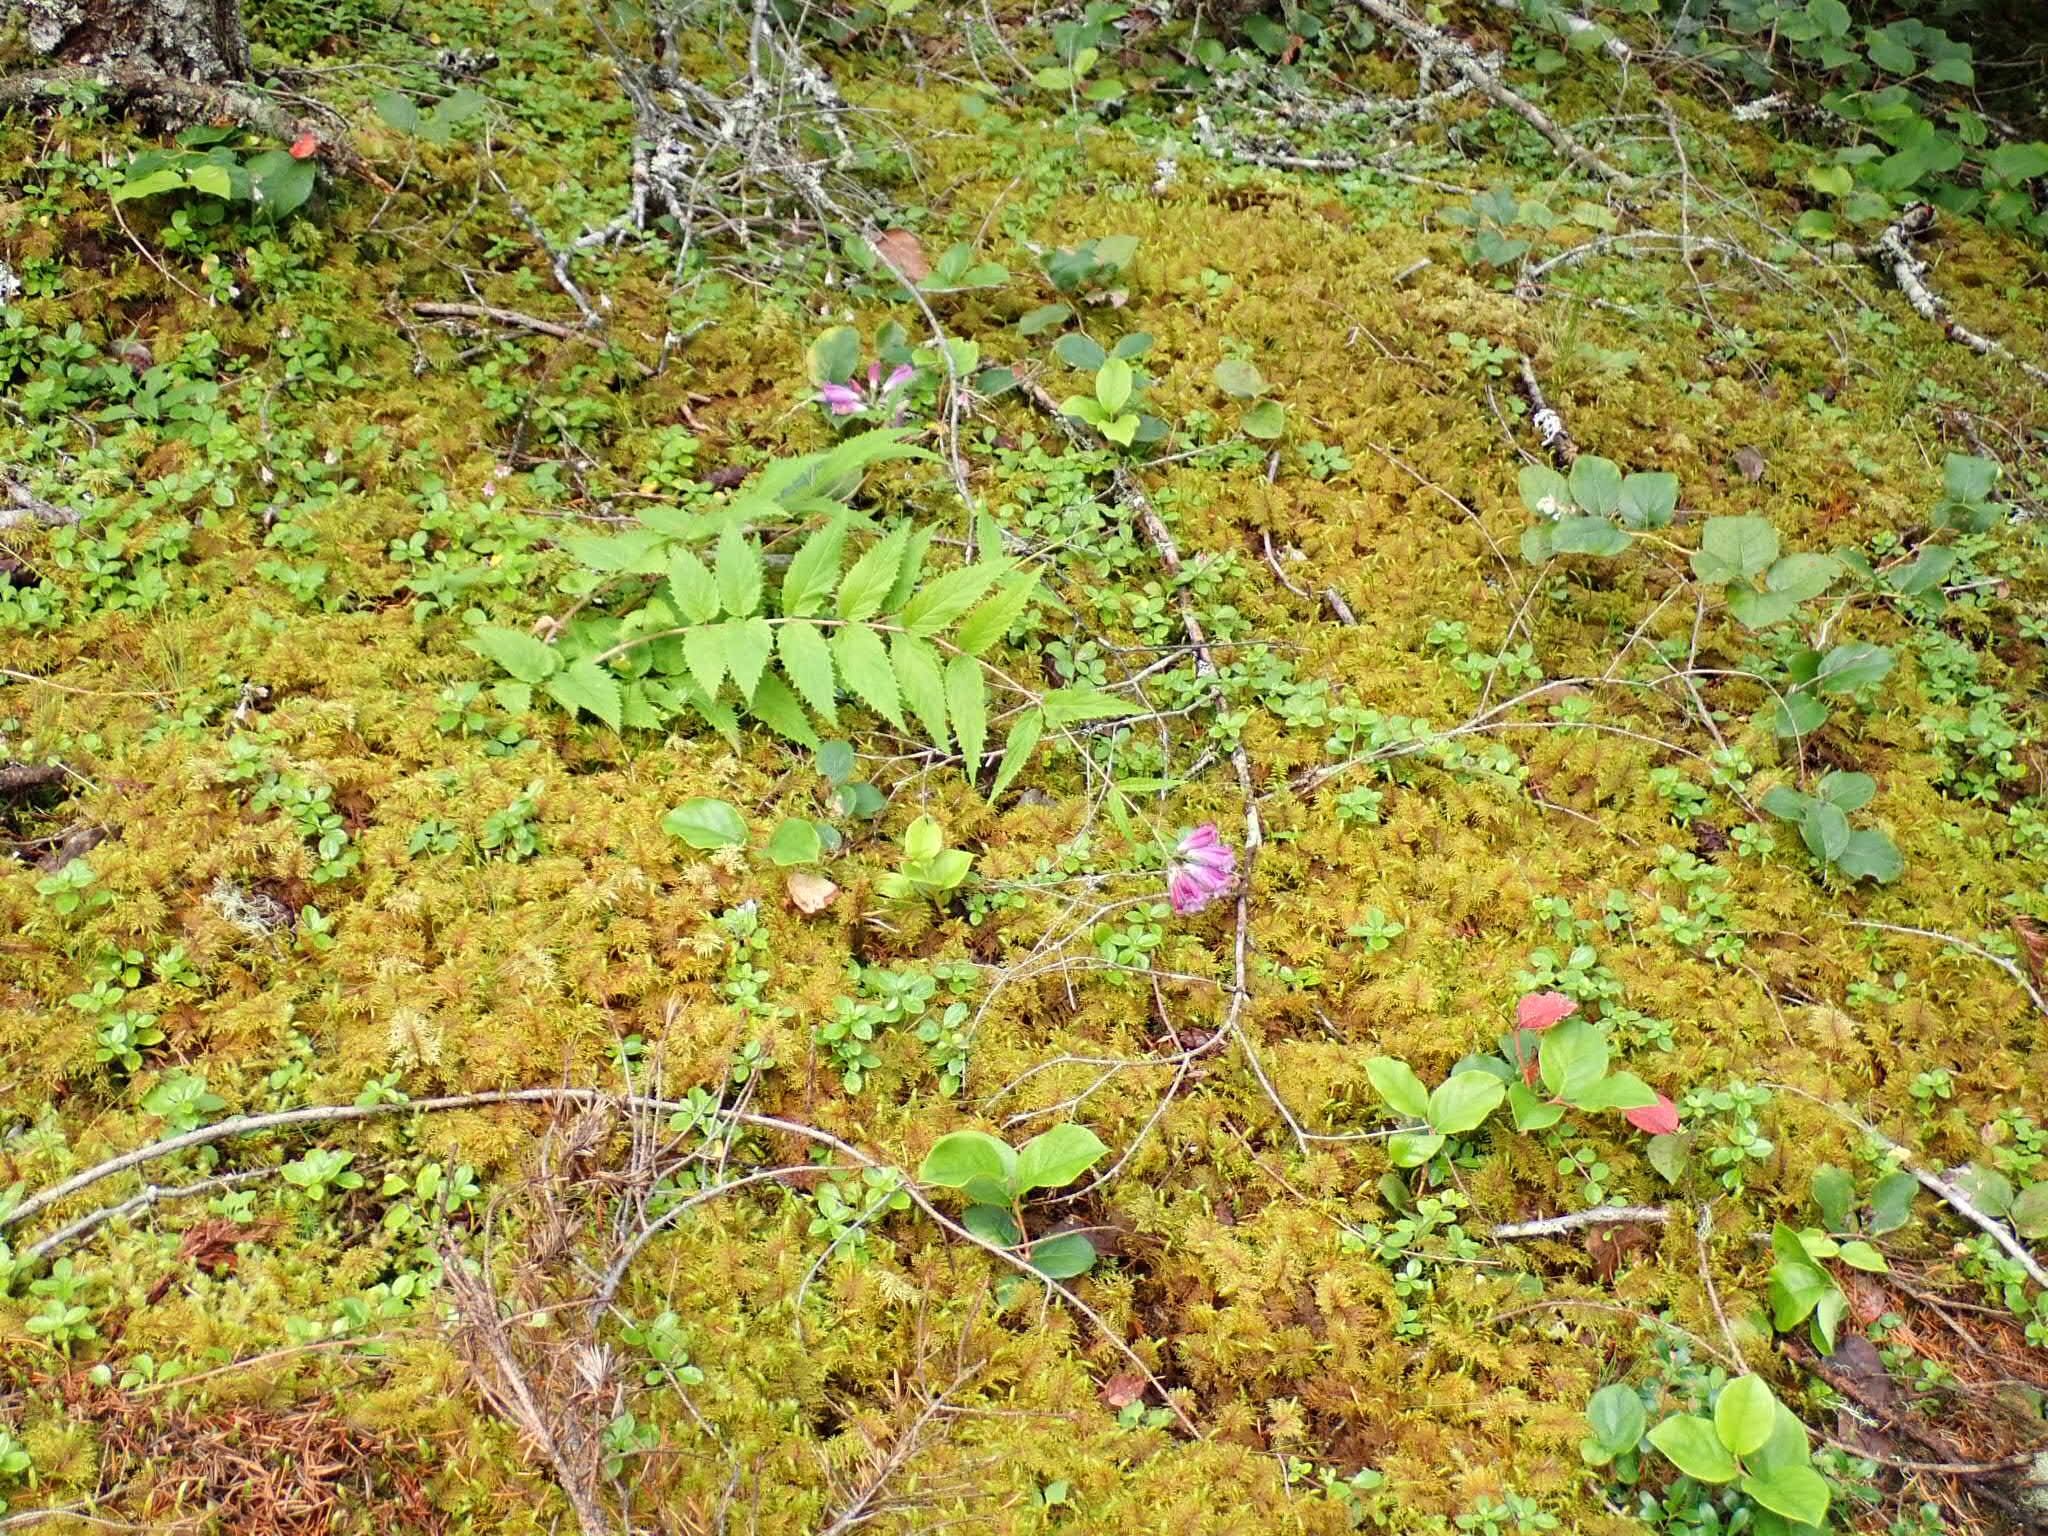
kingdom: Plantae
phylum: Tracheophyta
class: Magnoliopsida
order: Lamiales
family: Plantaginaceae
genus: Nothochelone
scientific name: Nothochelone nemorosa
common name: Woodland beardtongue
